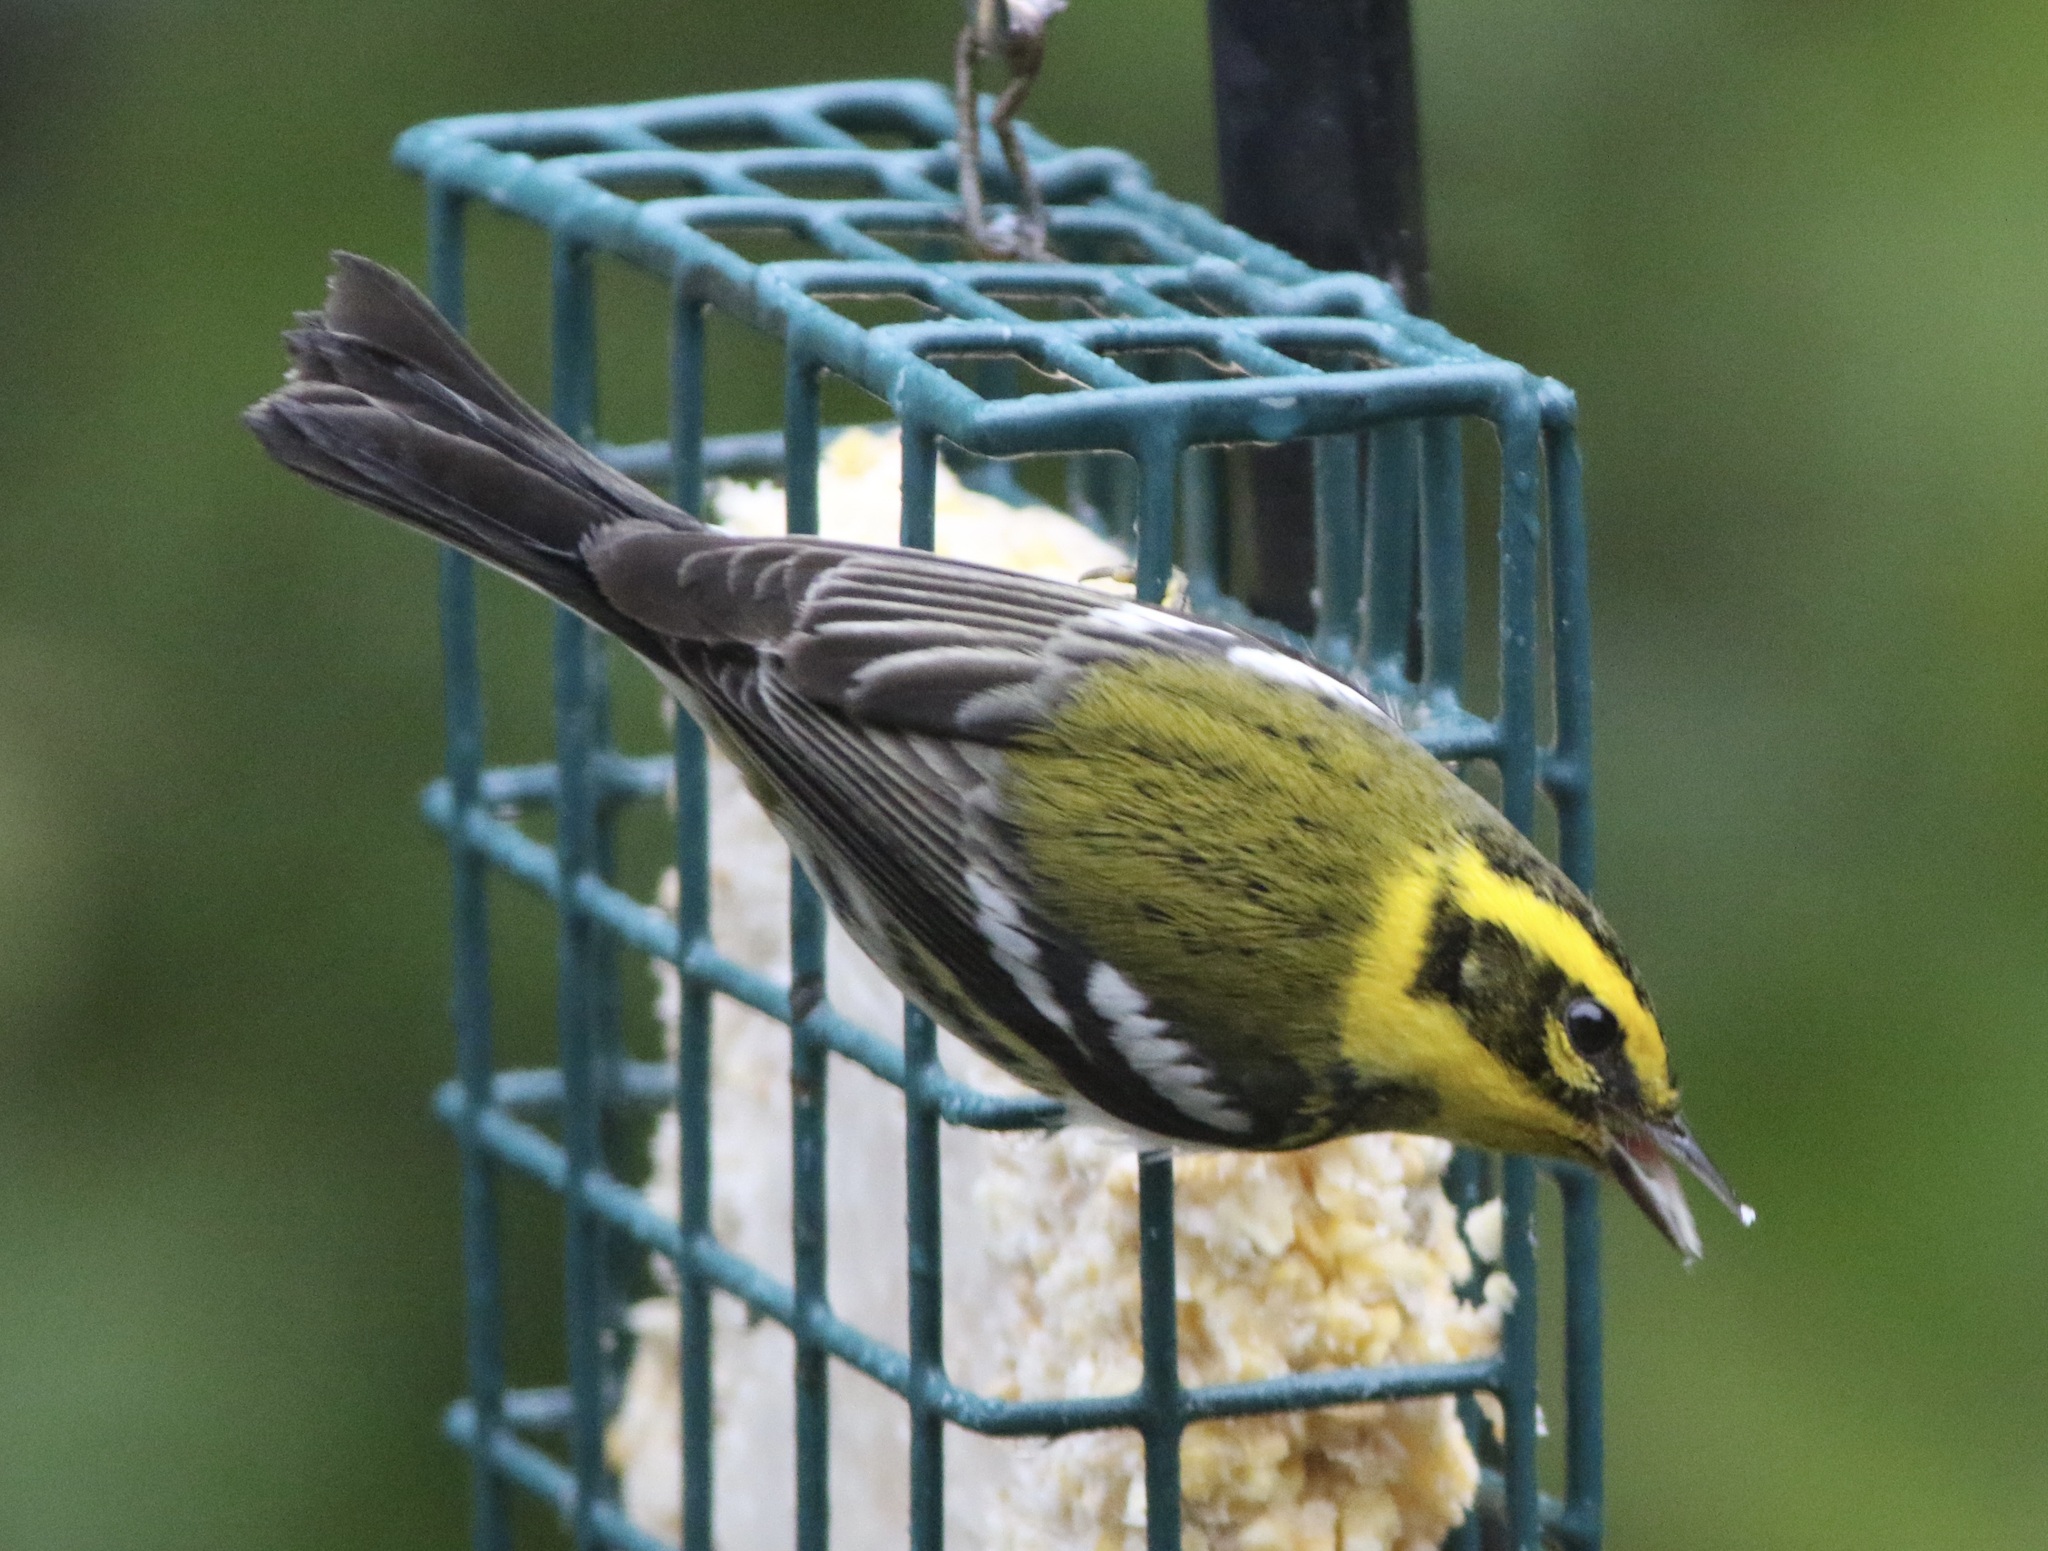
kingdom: Animalia
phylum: Chordata
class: Aves
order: Passeriformes
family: Parulidae
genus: Setophaga
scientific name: Setophaga townsendi
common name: Townsend's warbler
